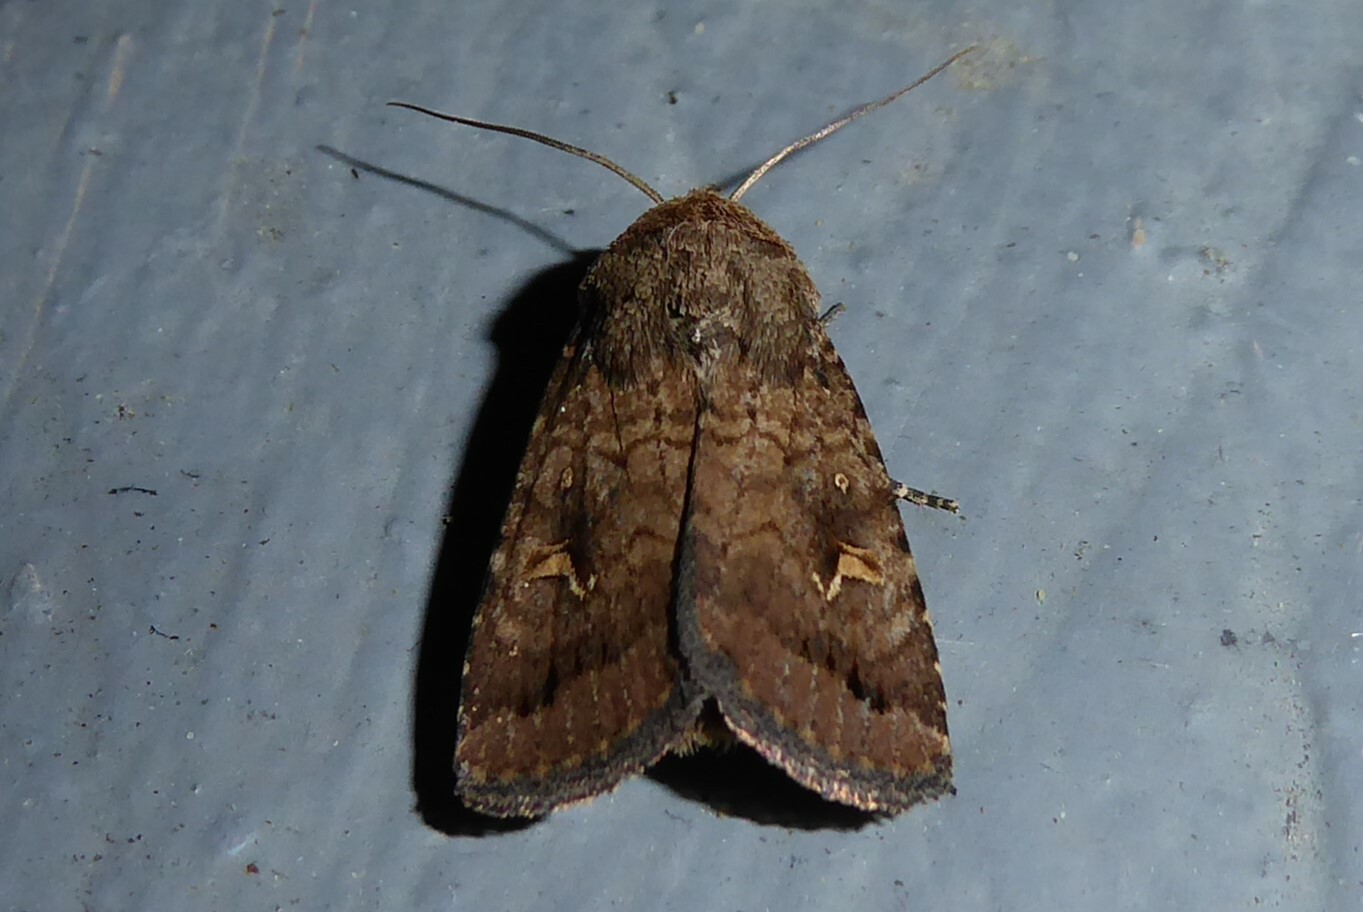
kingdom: Animalia
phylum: Arthropoda
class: Insecta
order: Lepidoptera
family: Noctuidae
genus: Proteuxoa
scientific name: Proteuxoa tetronycha
